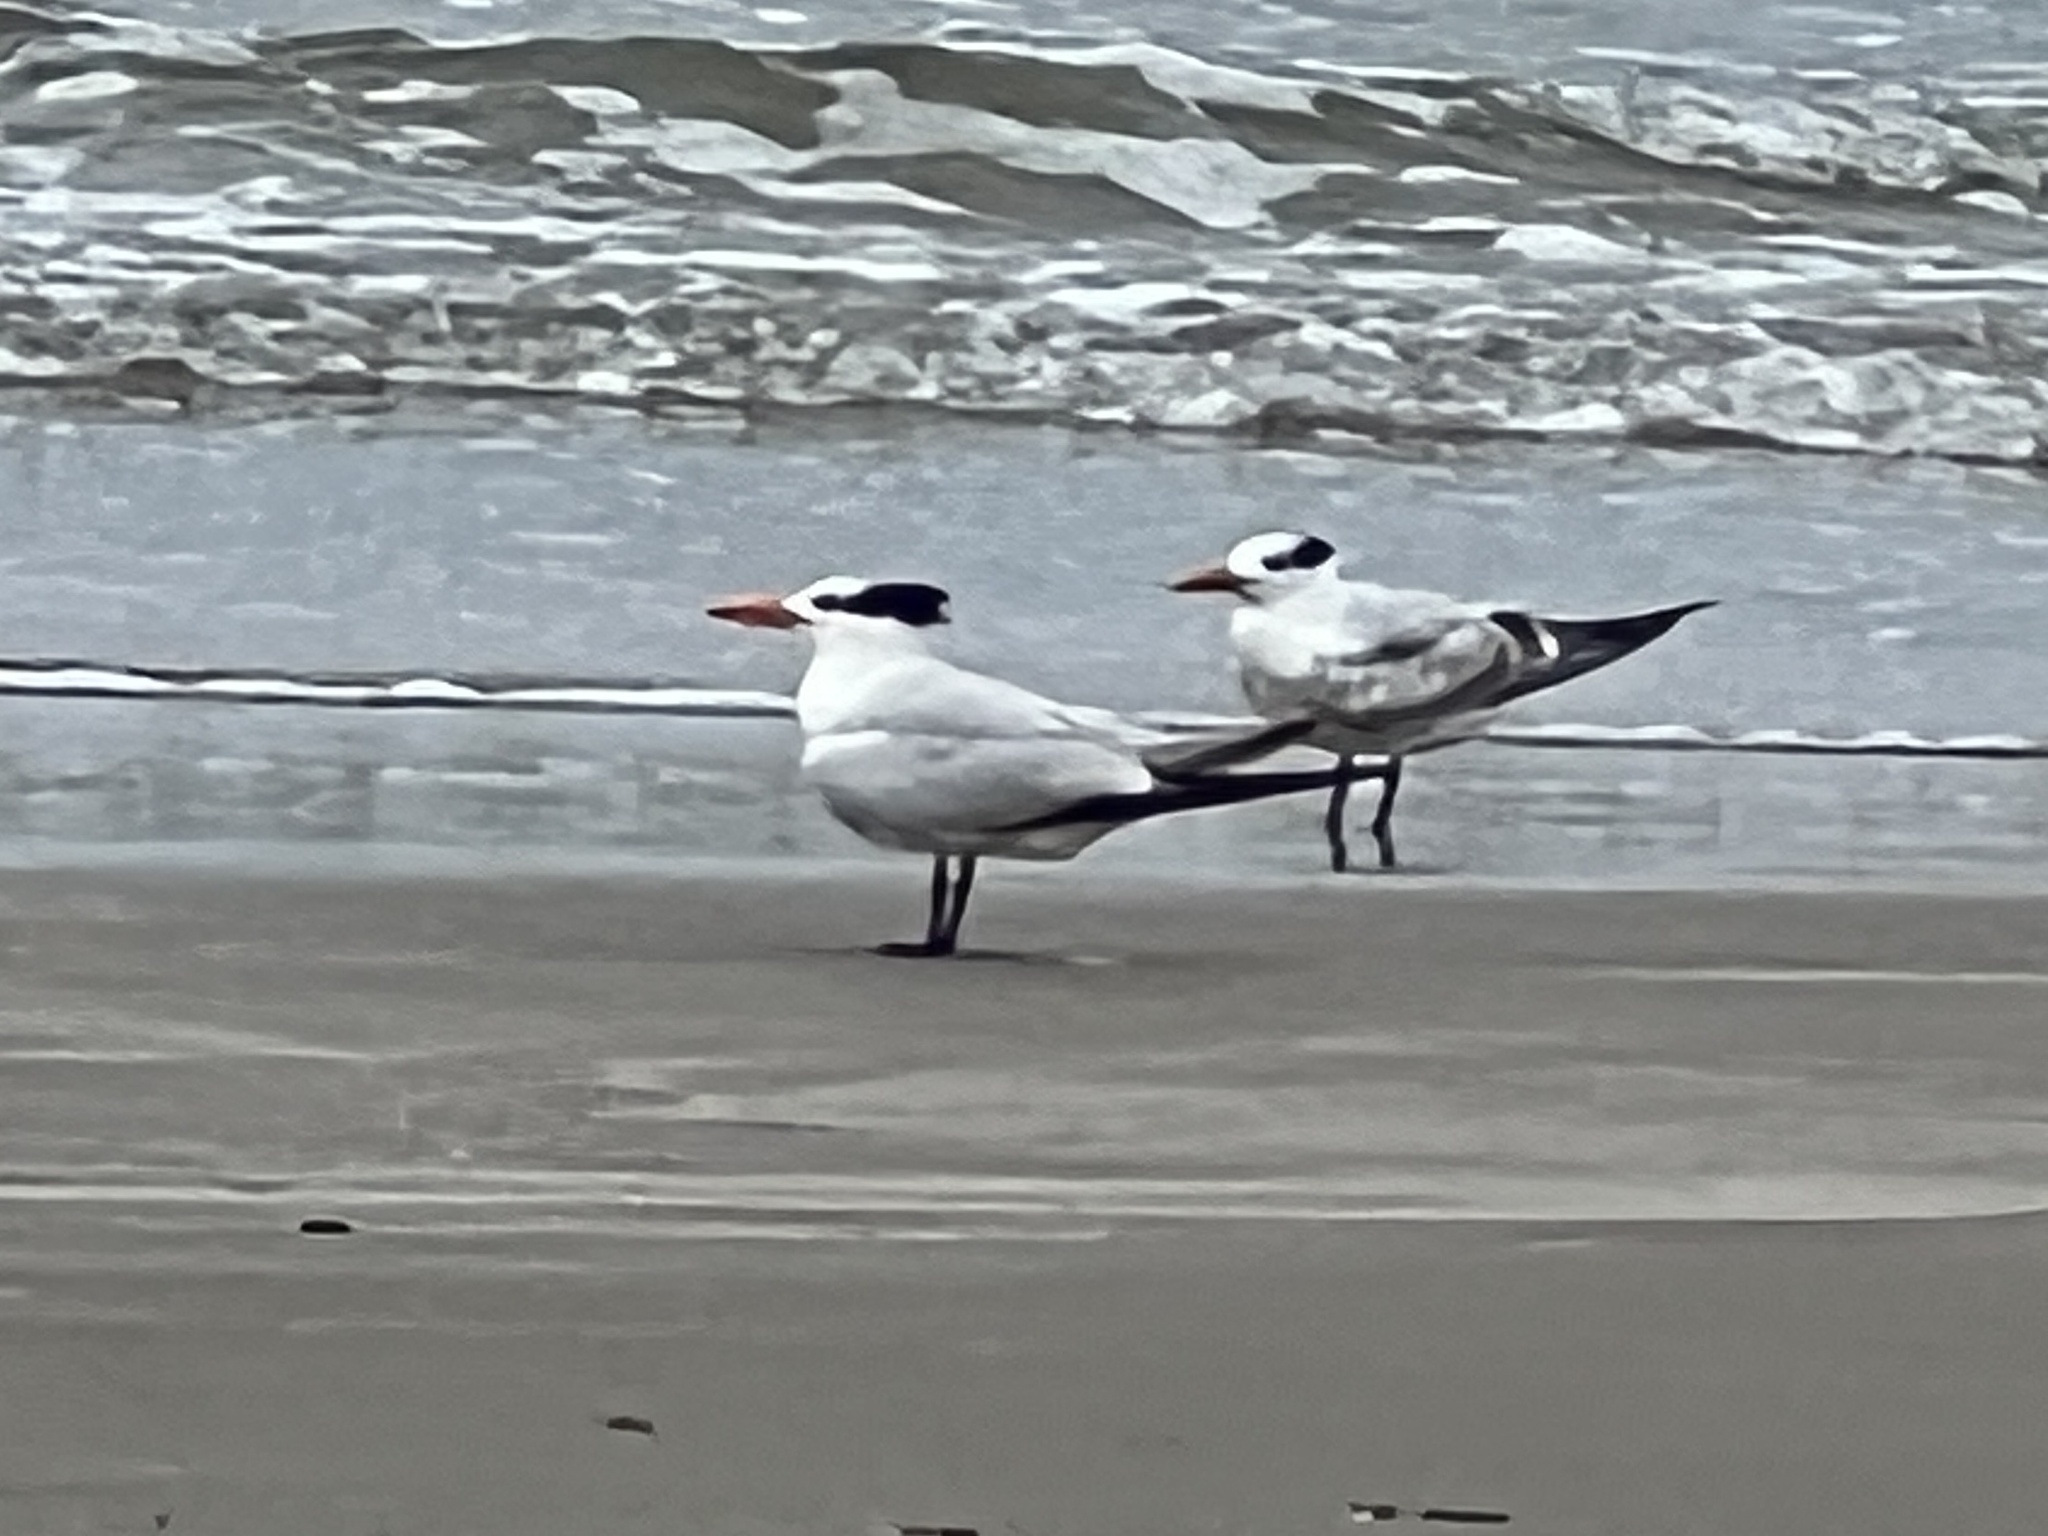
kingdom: Animalia
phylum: Chordata
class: Aves
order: Charadriiformes
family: Laridae
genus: Thalasseus
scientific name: Thalasseus maximus
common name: Royal tern
